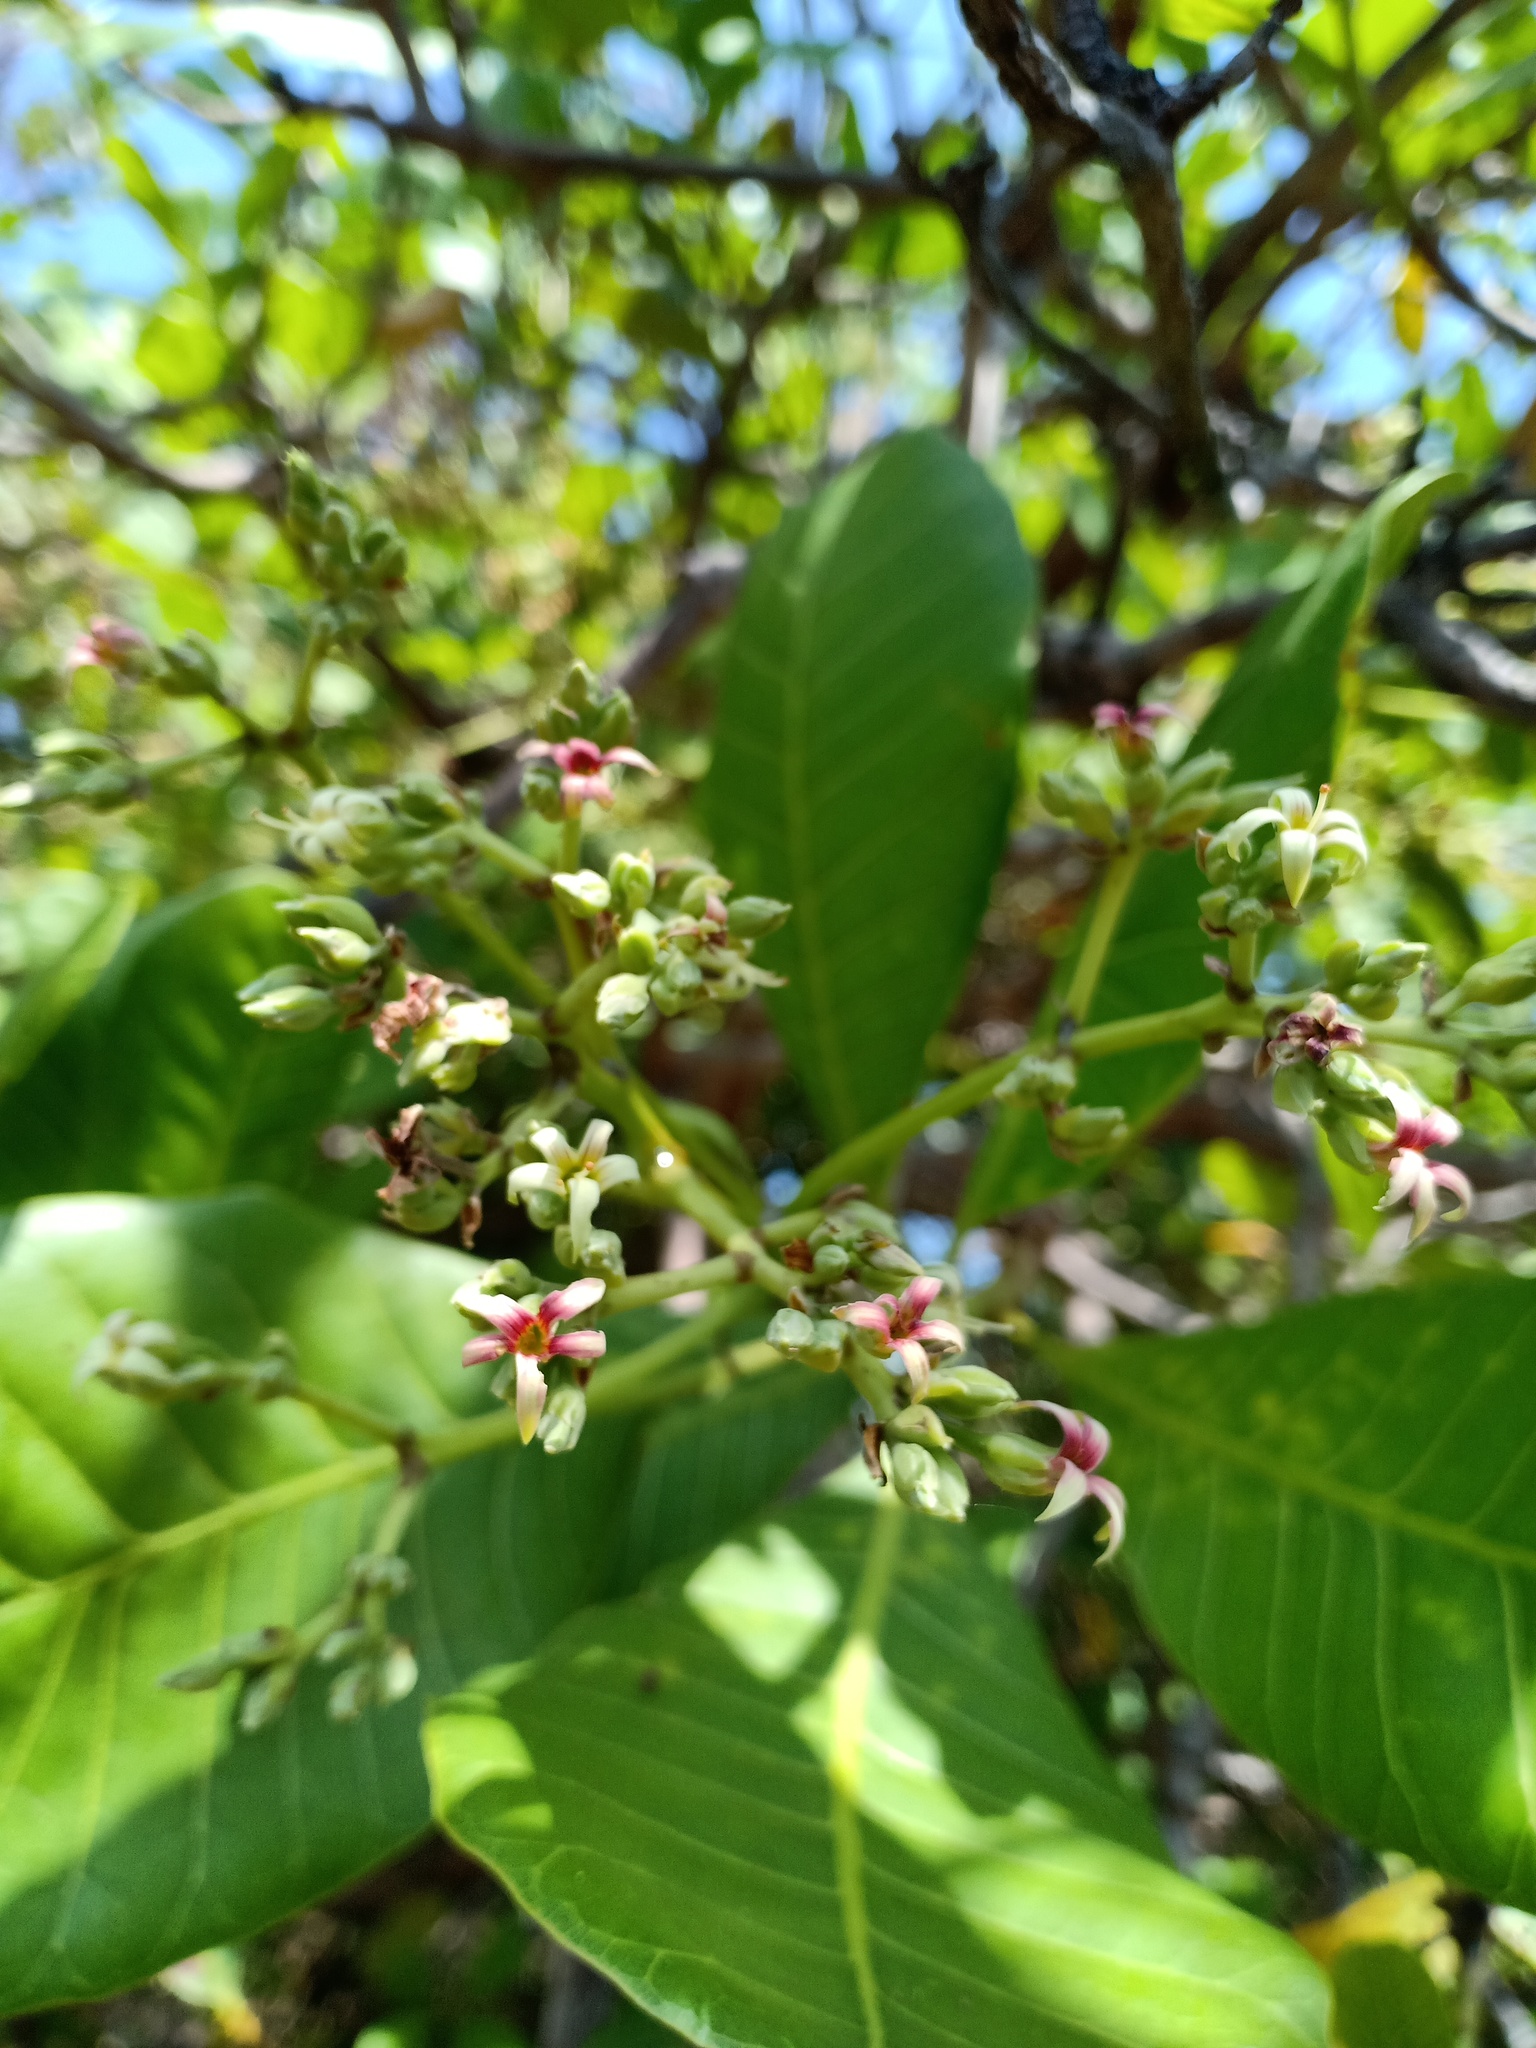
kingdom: Plantae
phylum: Tracheophyta
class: Magnoliopsida
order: Sapindales
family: Anacardiaceae
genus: Anacardium
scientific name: Anacardium occidentale
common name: Cashew
